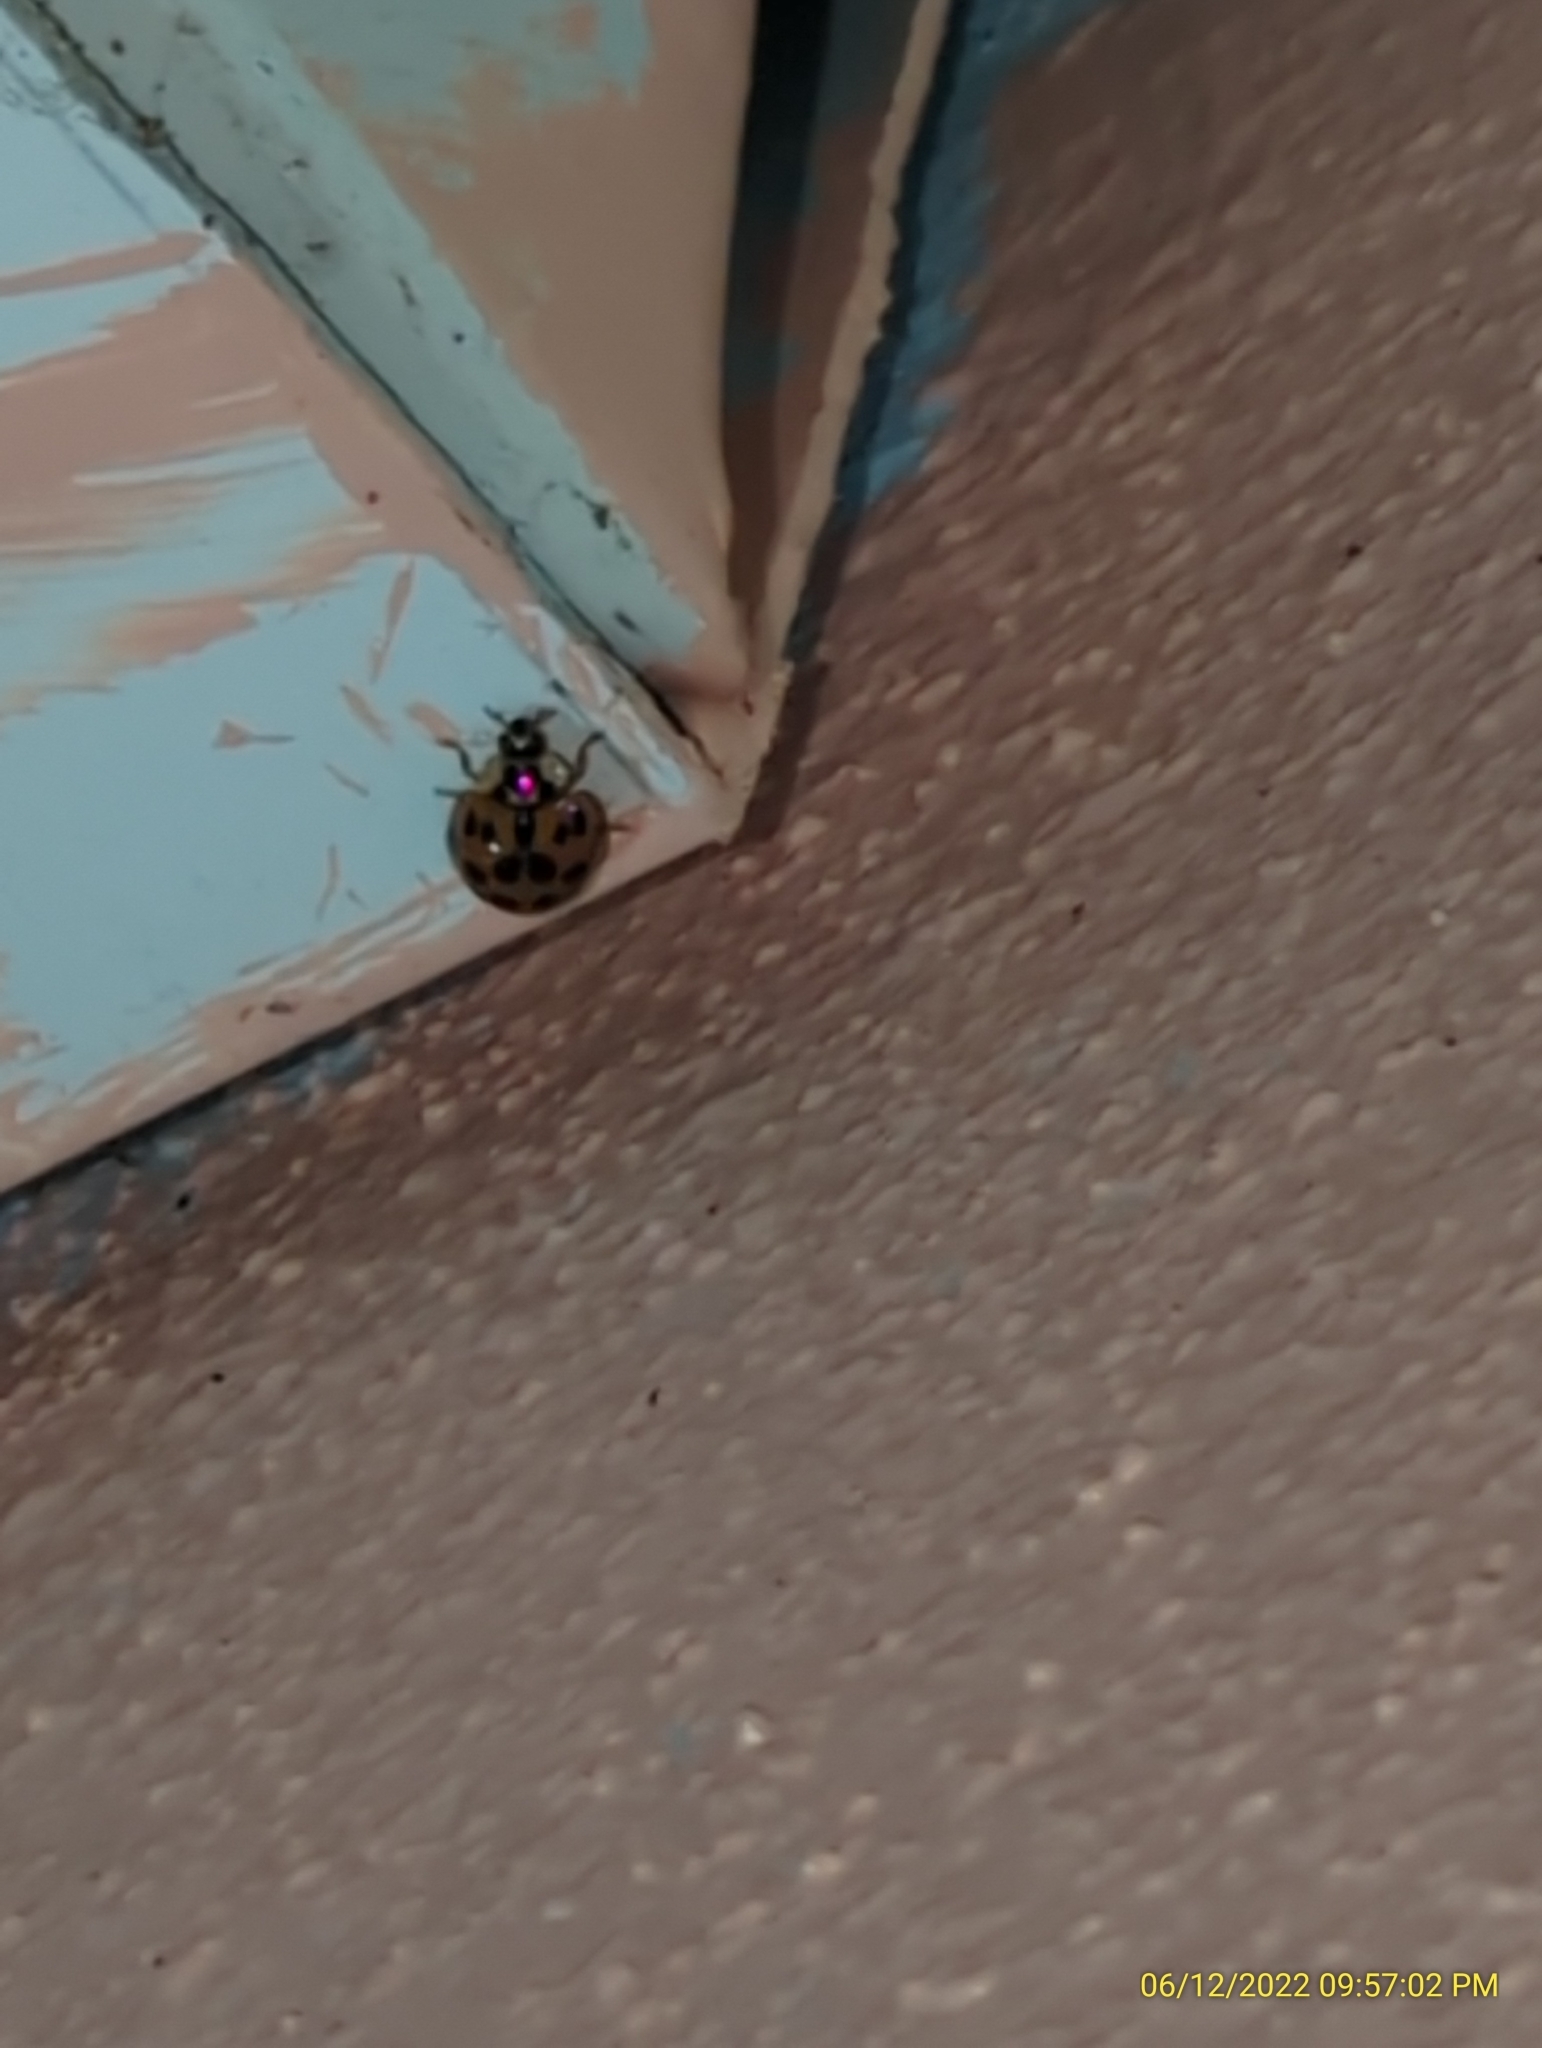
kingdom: Animalia
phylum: Arthropoda
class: Insecta
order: Coleoptera
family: Coccinellidae
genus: Harmonia
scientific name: Harmonia axyridis
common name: Harlequin ladybird
